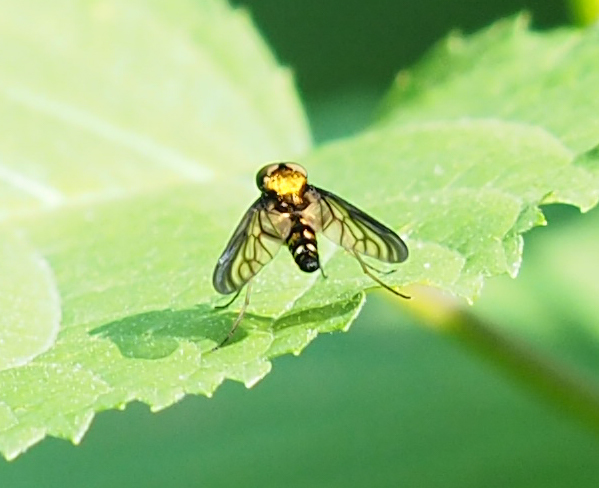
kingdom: Animalia
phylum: Arthropoda
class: Insecta
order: Diptera
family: Rhagionidae
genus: Chrysopilus
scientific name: Chrysopilus thoracicus
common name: Golden-backed snipe fly
